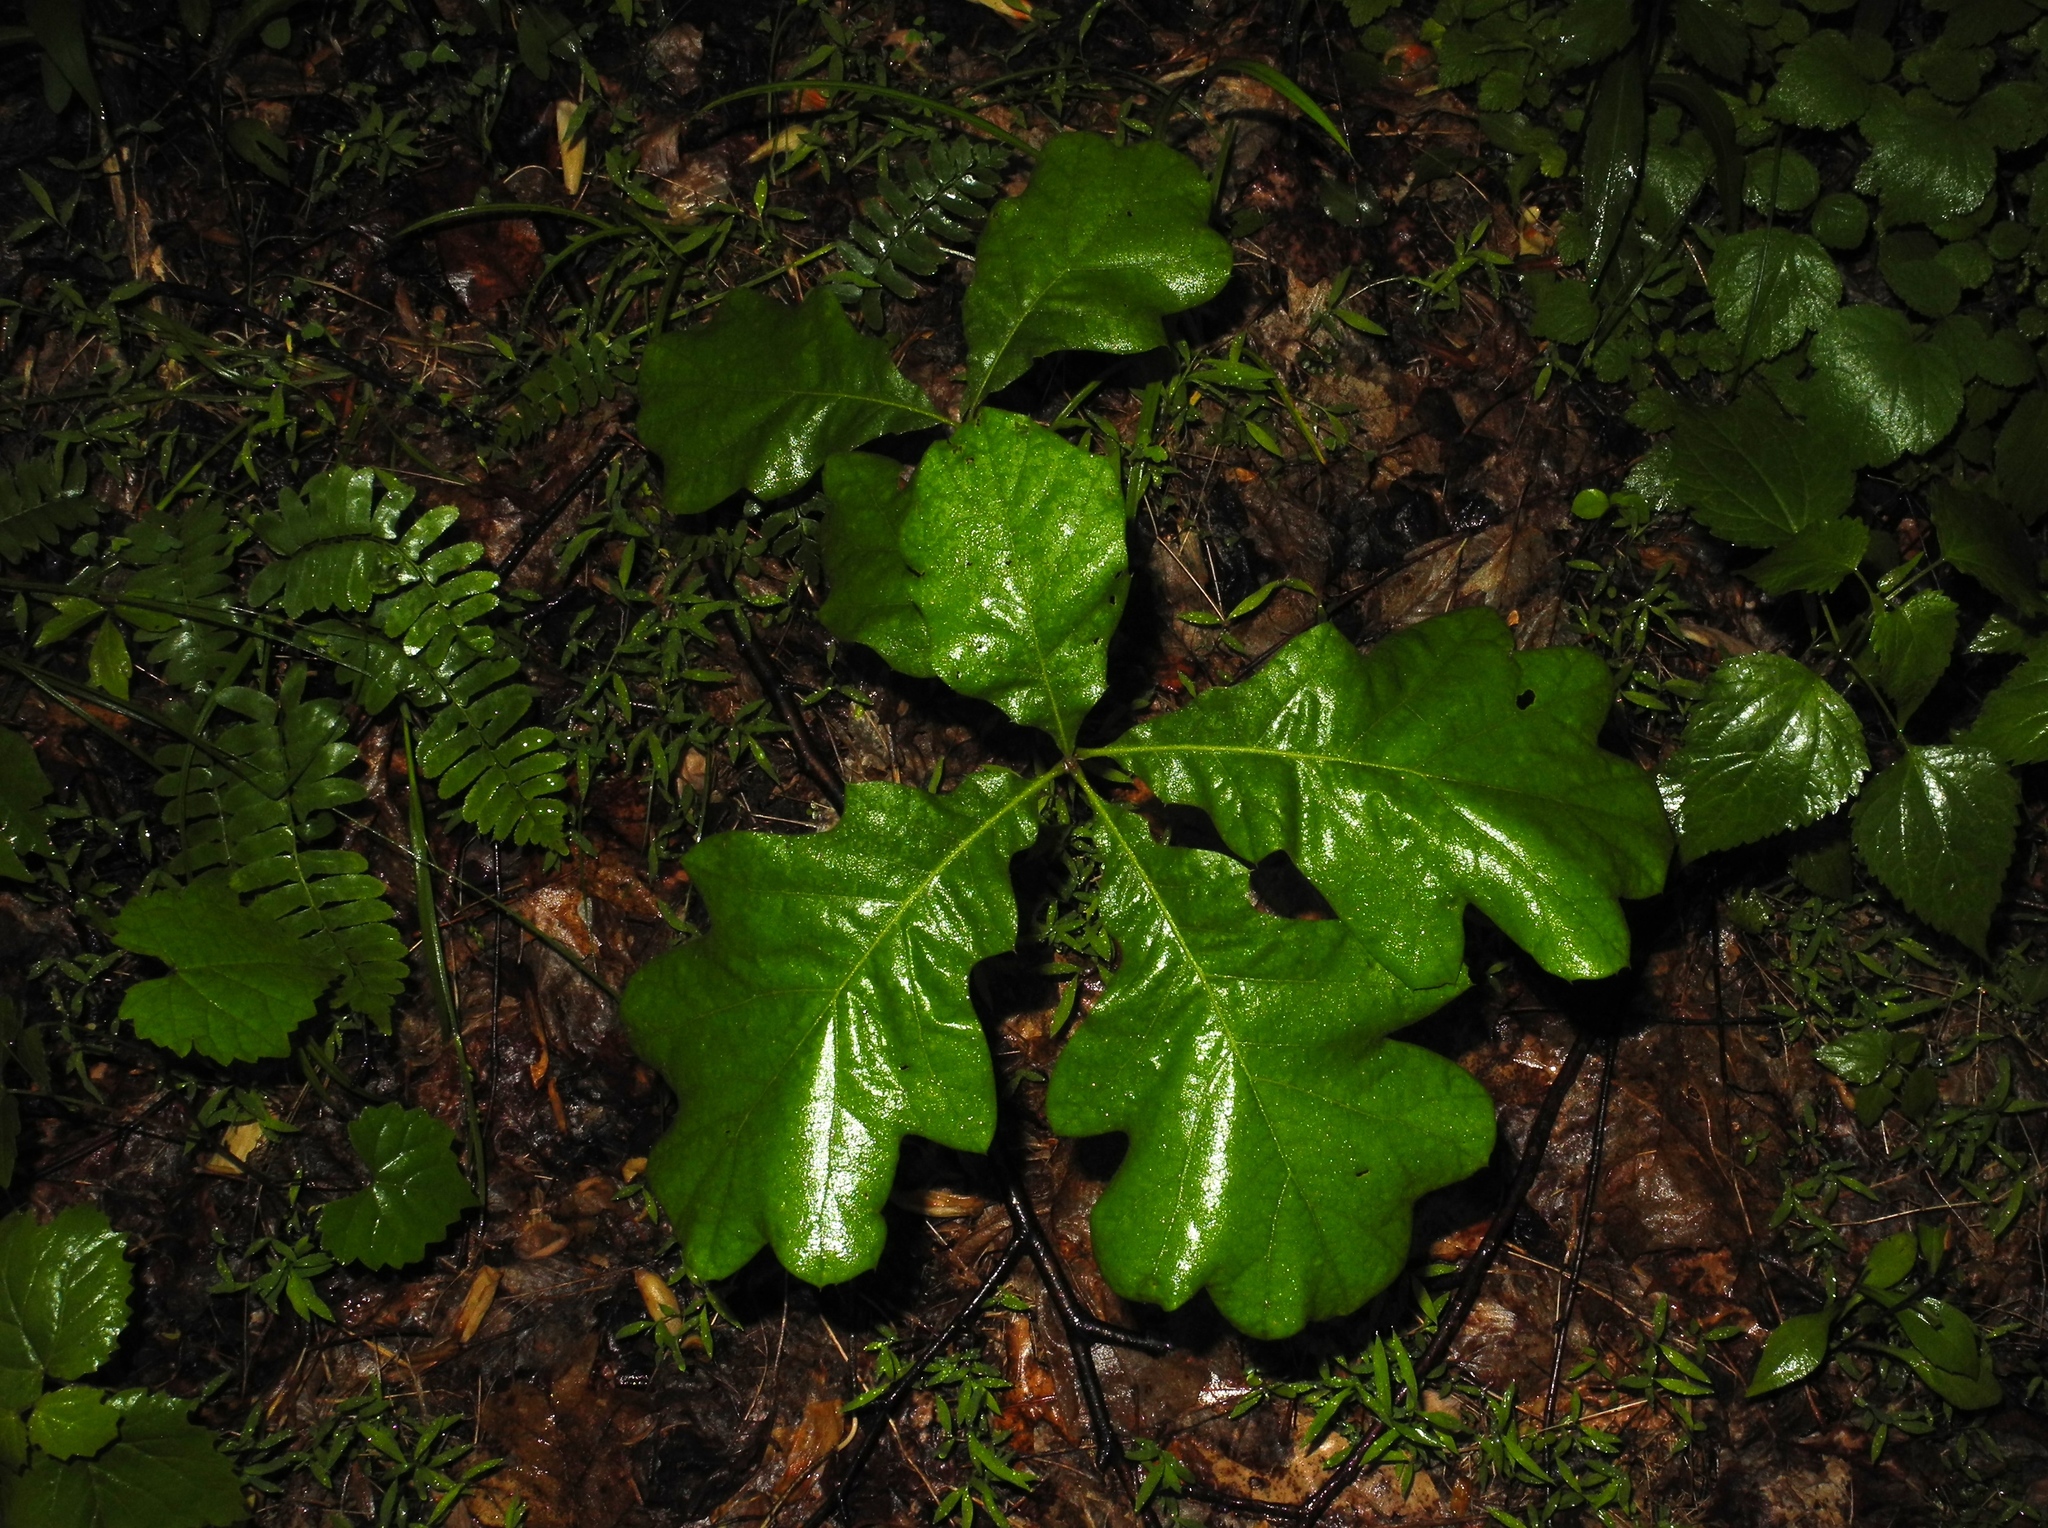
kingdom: Plantae
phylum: Tracheophyta
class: Magnoliopsida
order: Fagales
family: Fagaceae
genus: Quercus
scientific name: Quercus velutina
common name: Black oak
